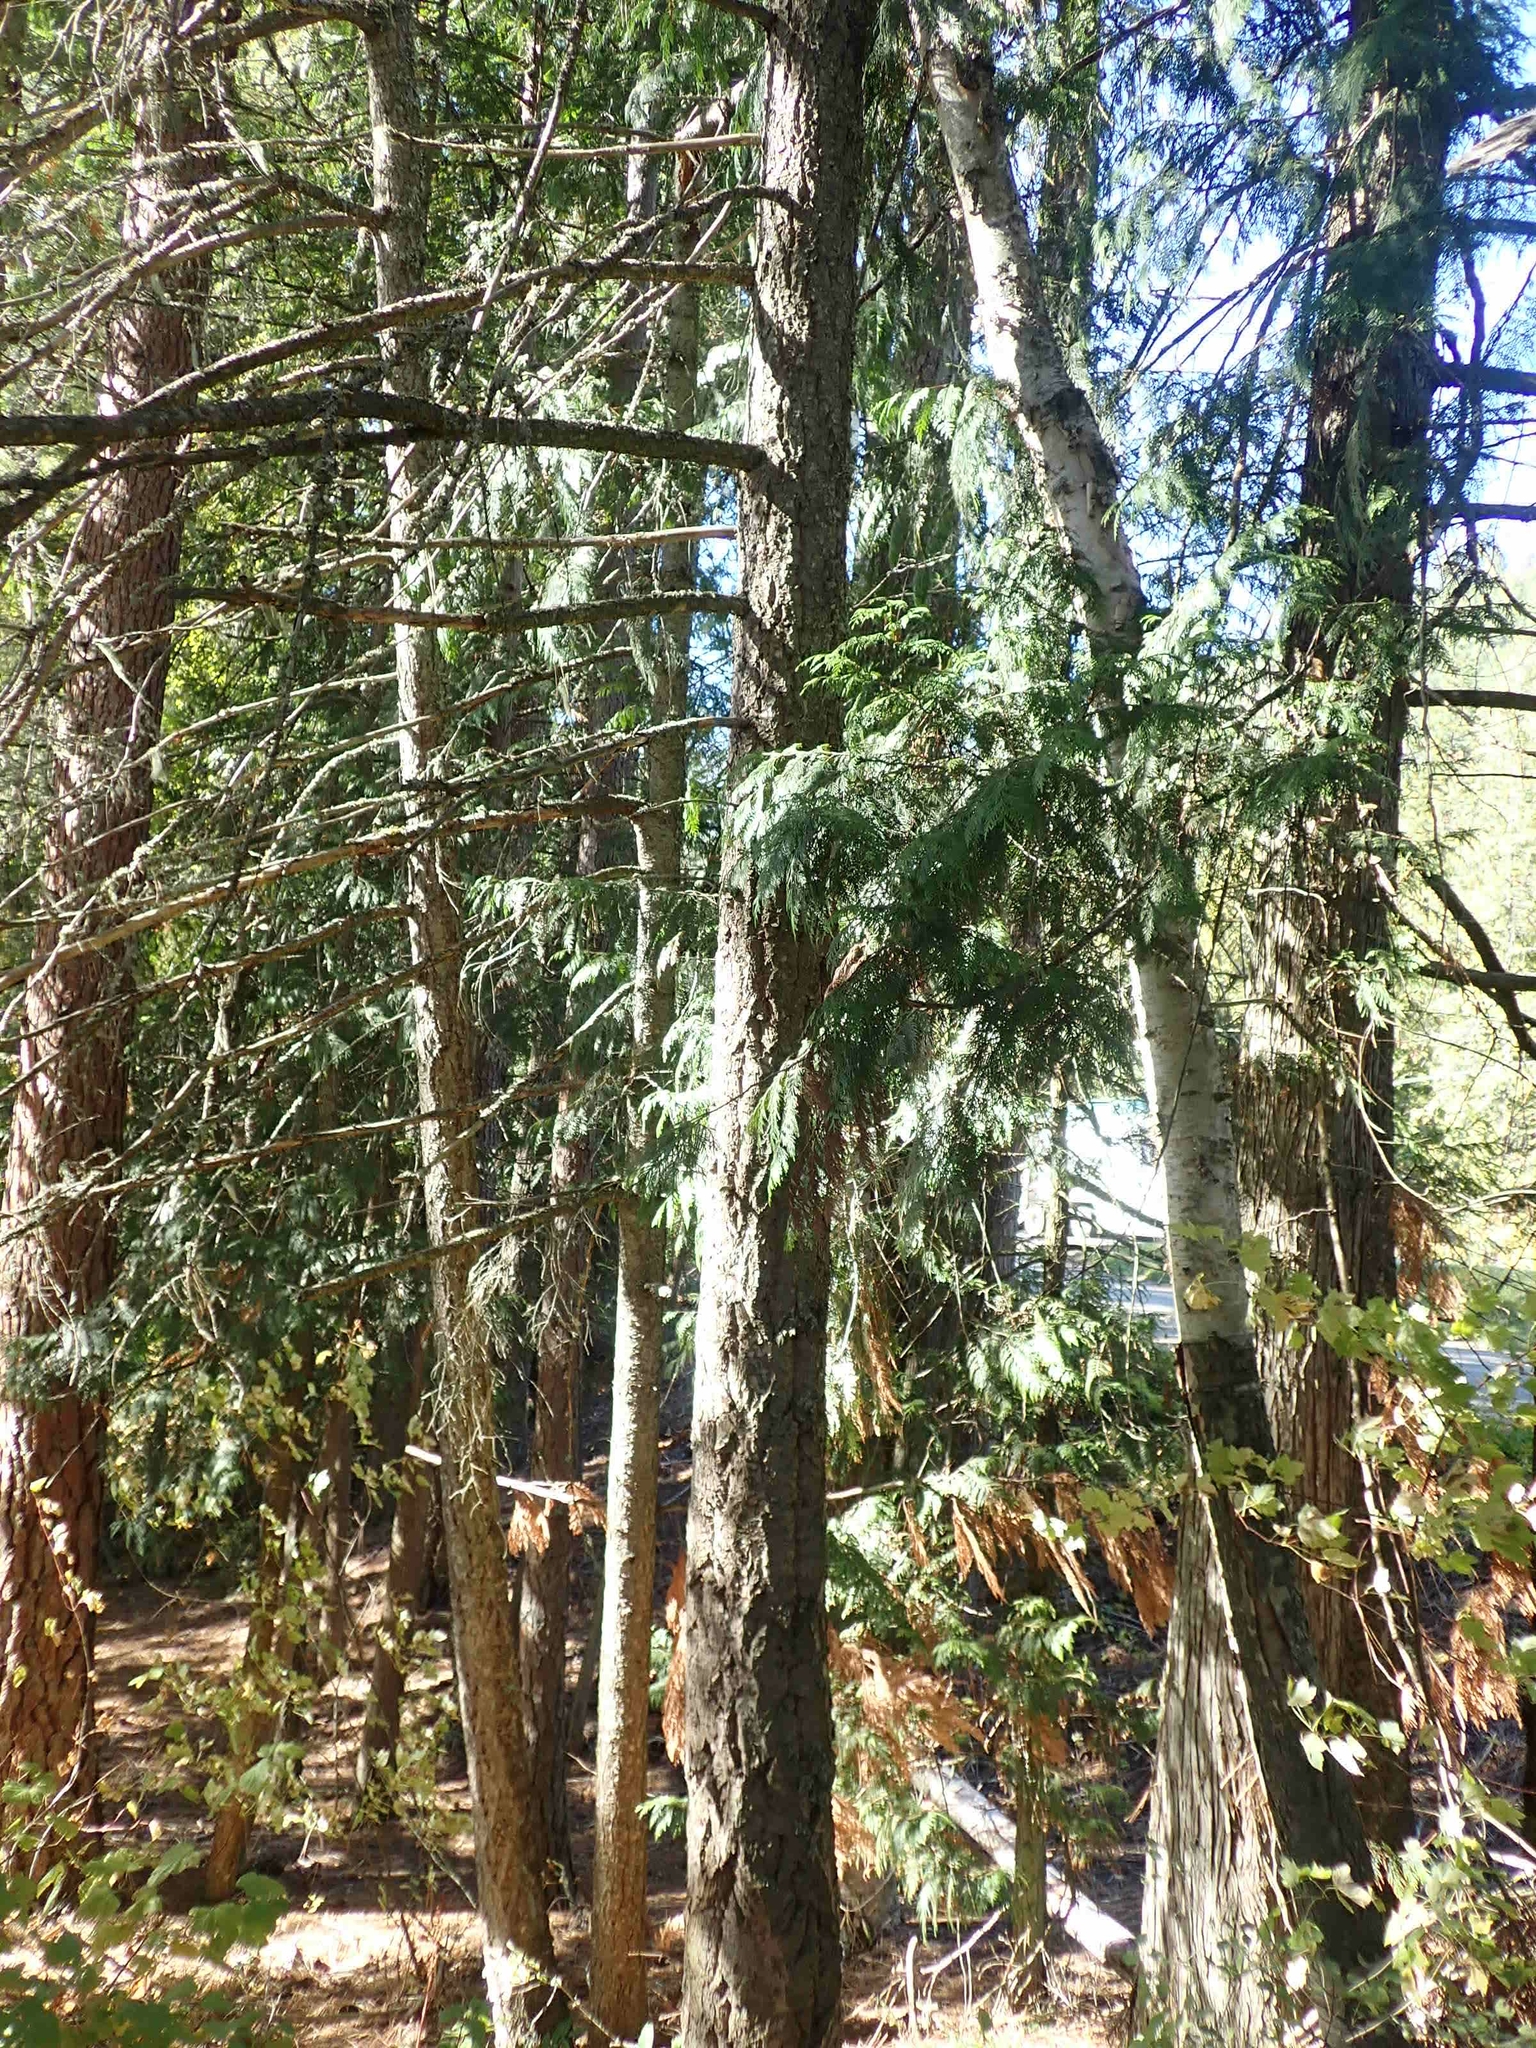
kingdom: Plantae
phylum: Tracheophyta
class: Pinopsida
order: Pinales
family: Cupressaceae
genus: Thuja
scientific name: Thuja plicata
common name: Western red-cedar
